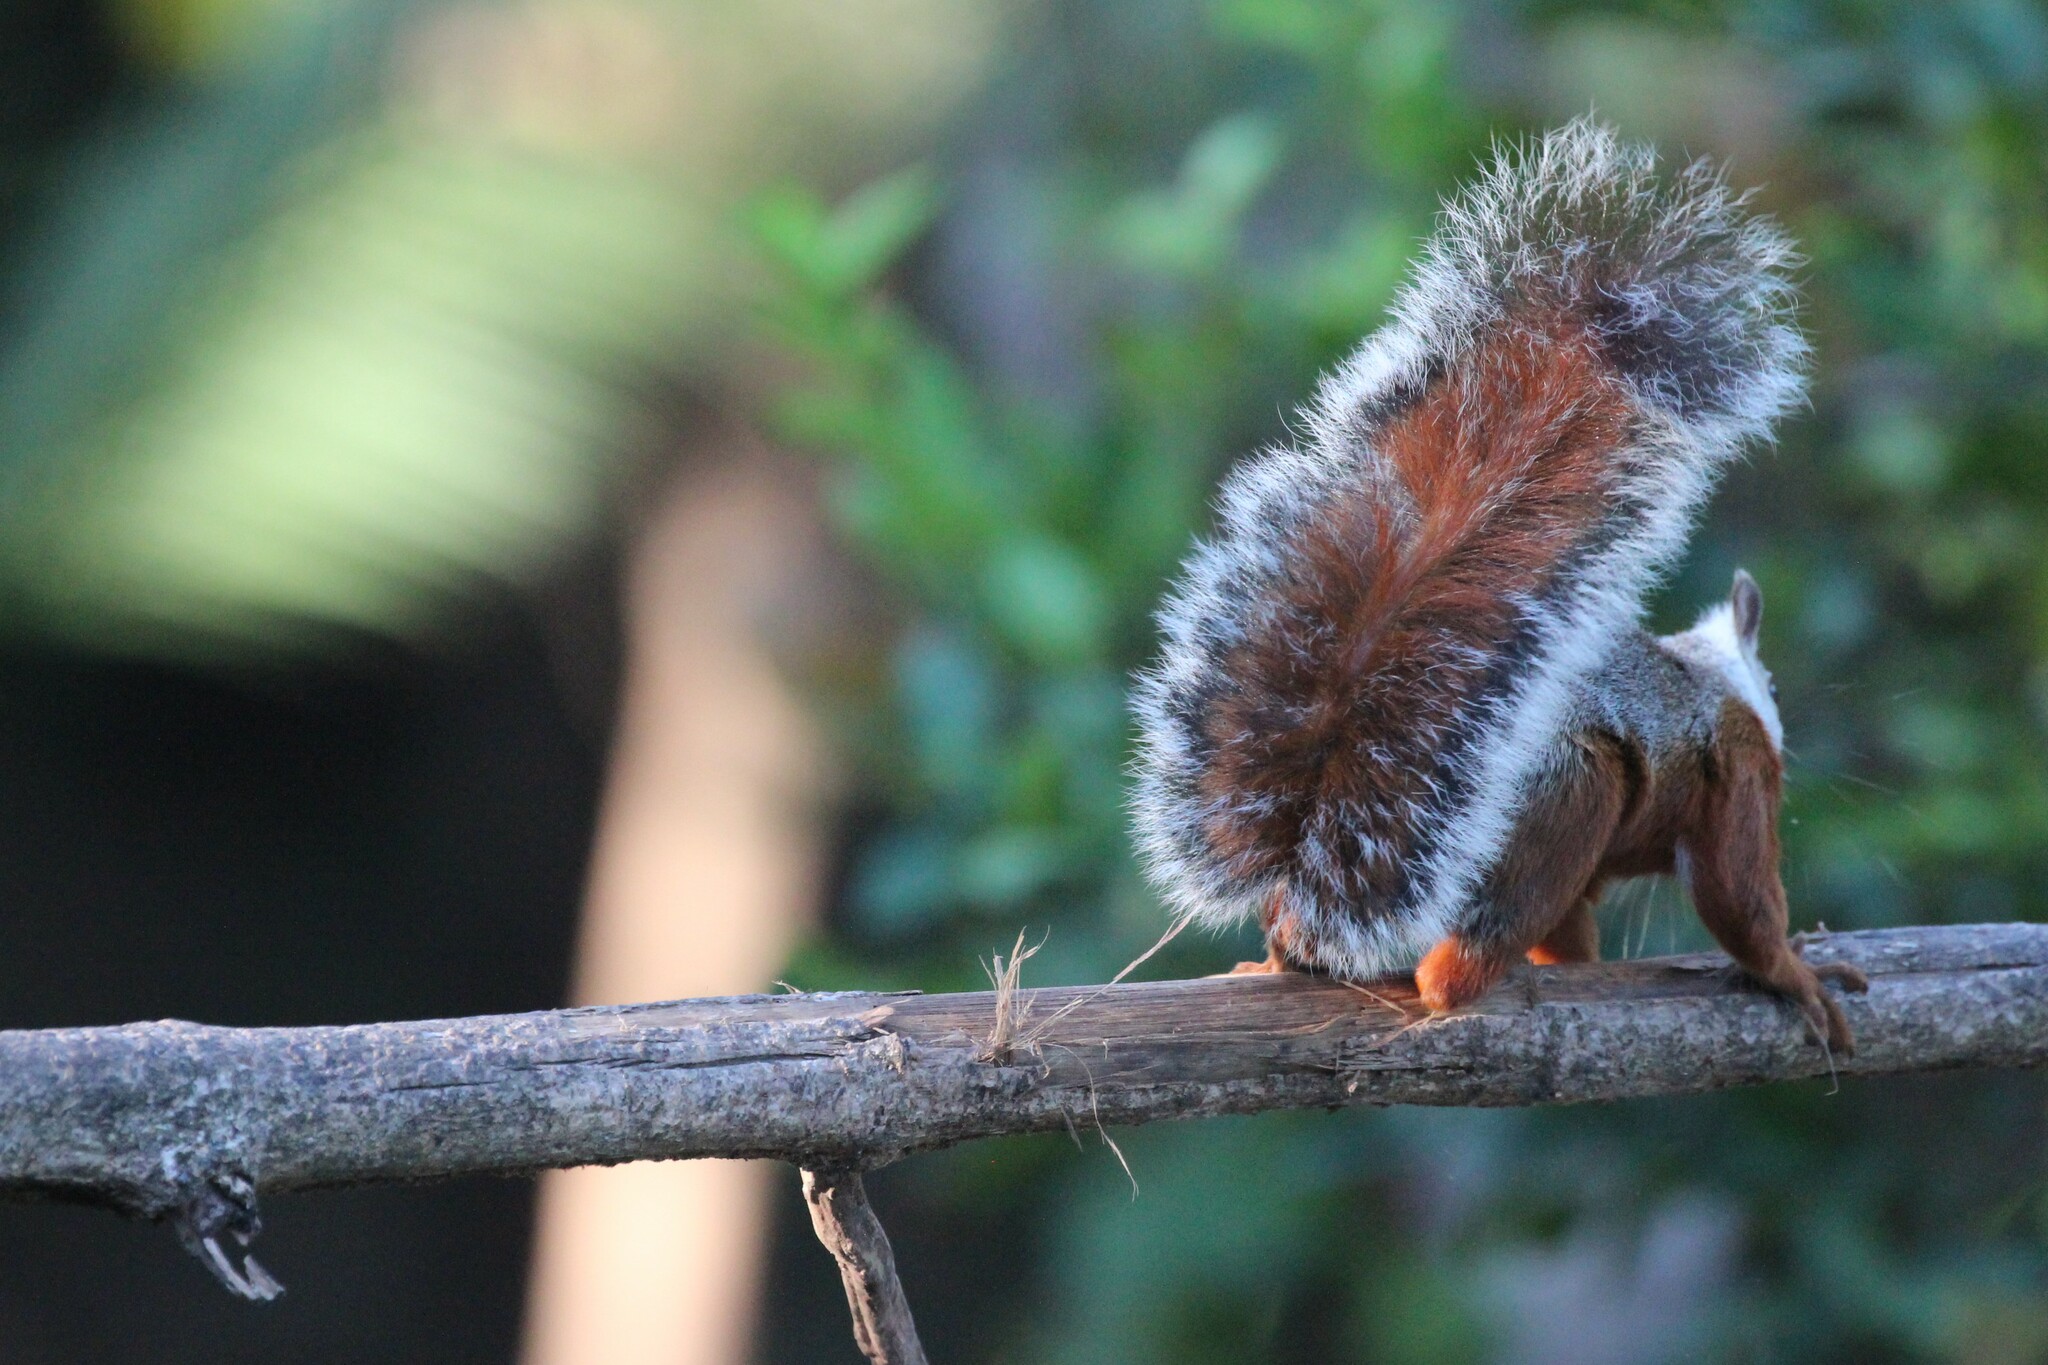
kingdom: Animalia
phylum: Chordata
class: Mammalia
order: Rodentia
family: Sciuridae
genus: Sciurus
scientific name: Sciurus variegatoides
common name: Variegated squirrel
